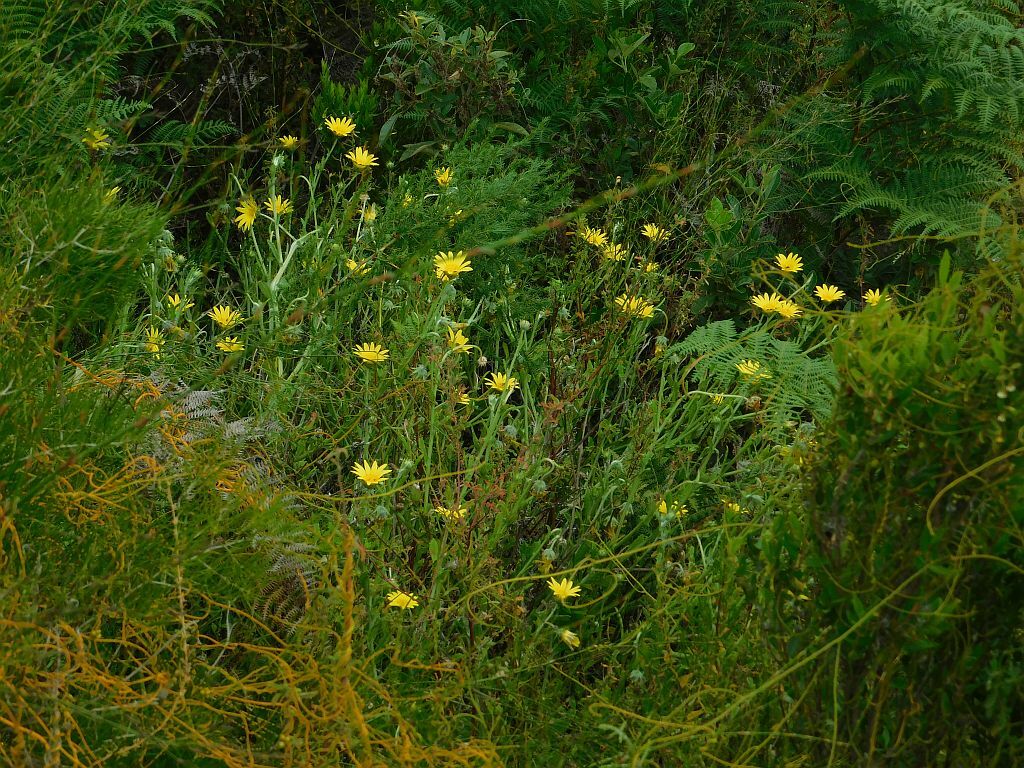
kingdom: Plantae
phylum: Tracheophyta
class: Magnoliopsida
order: Asterales
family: Asteraceae
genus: Arctotis
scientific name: Arctotis scabra
